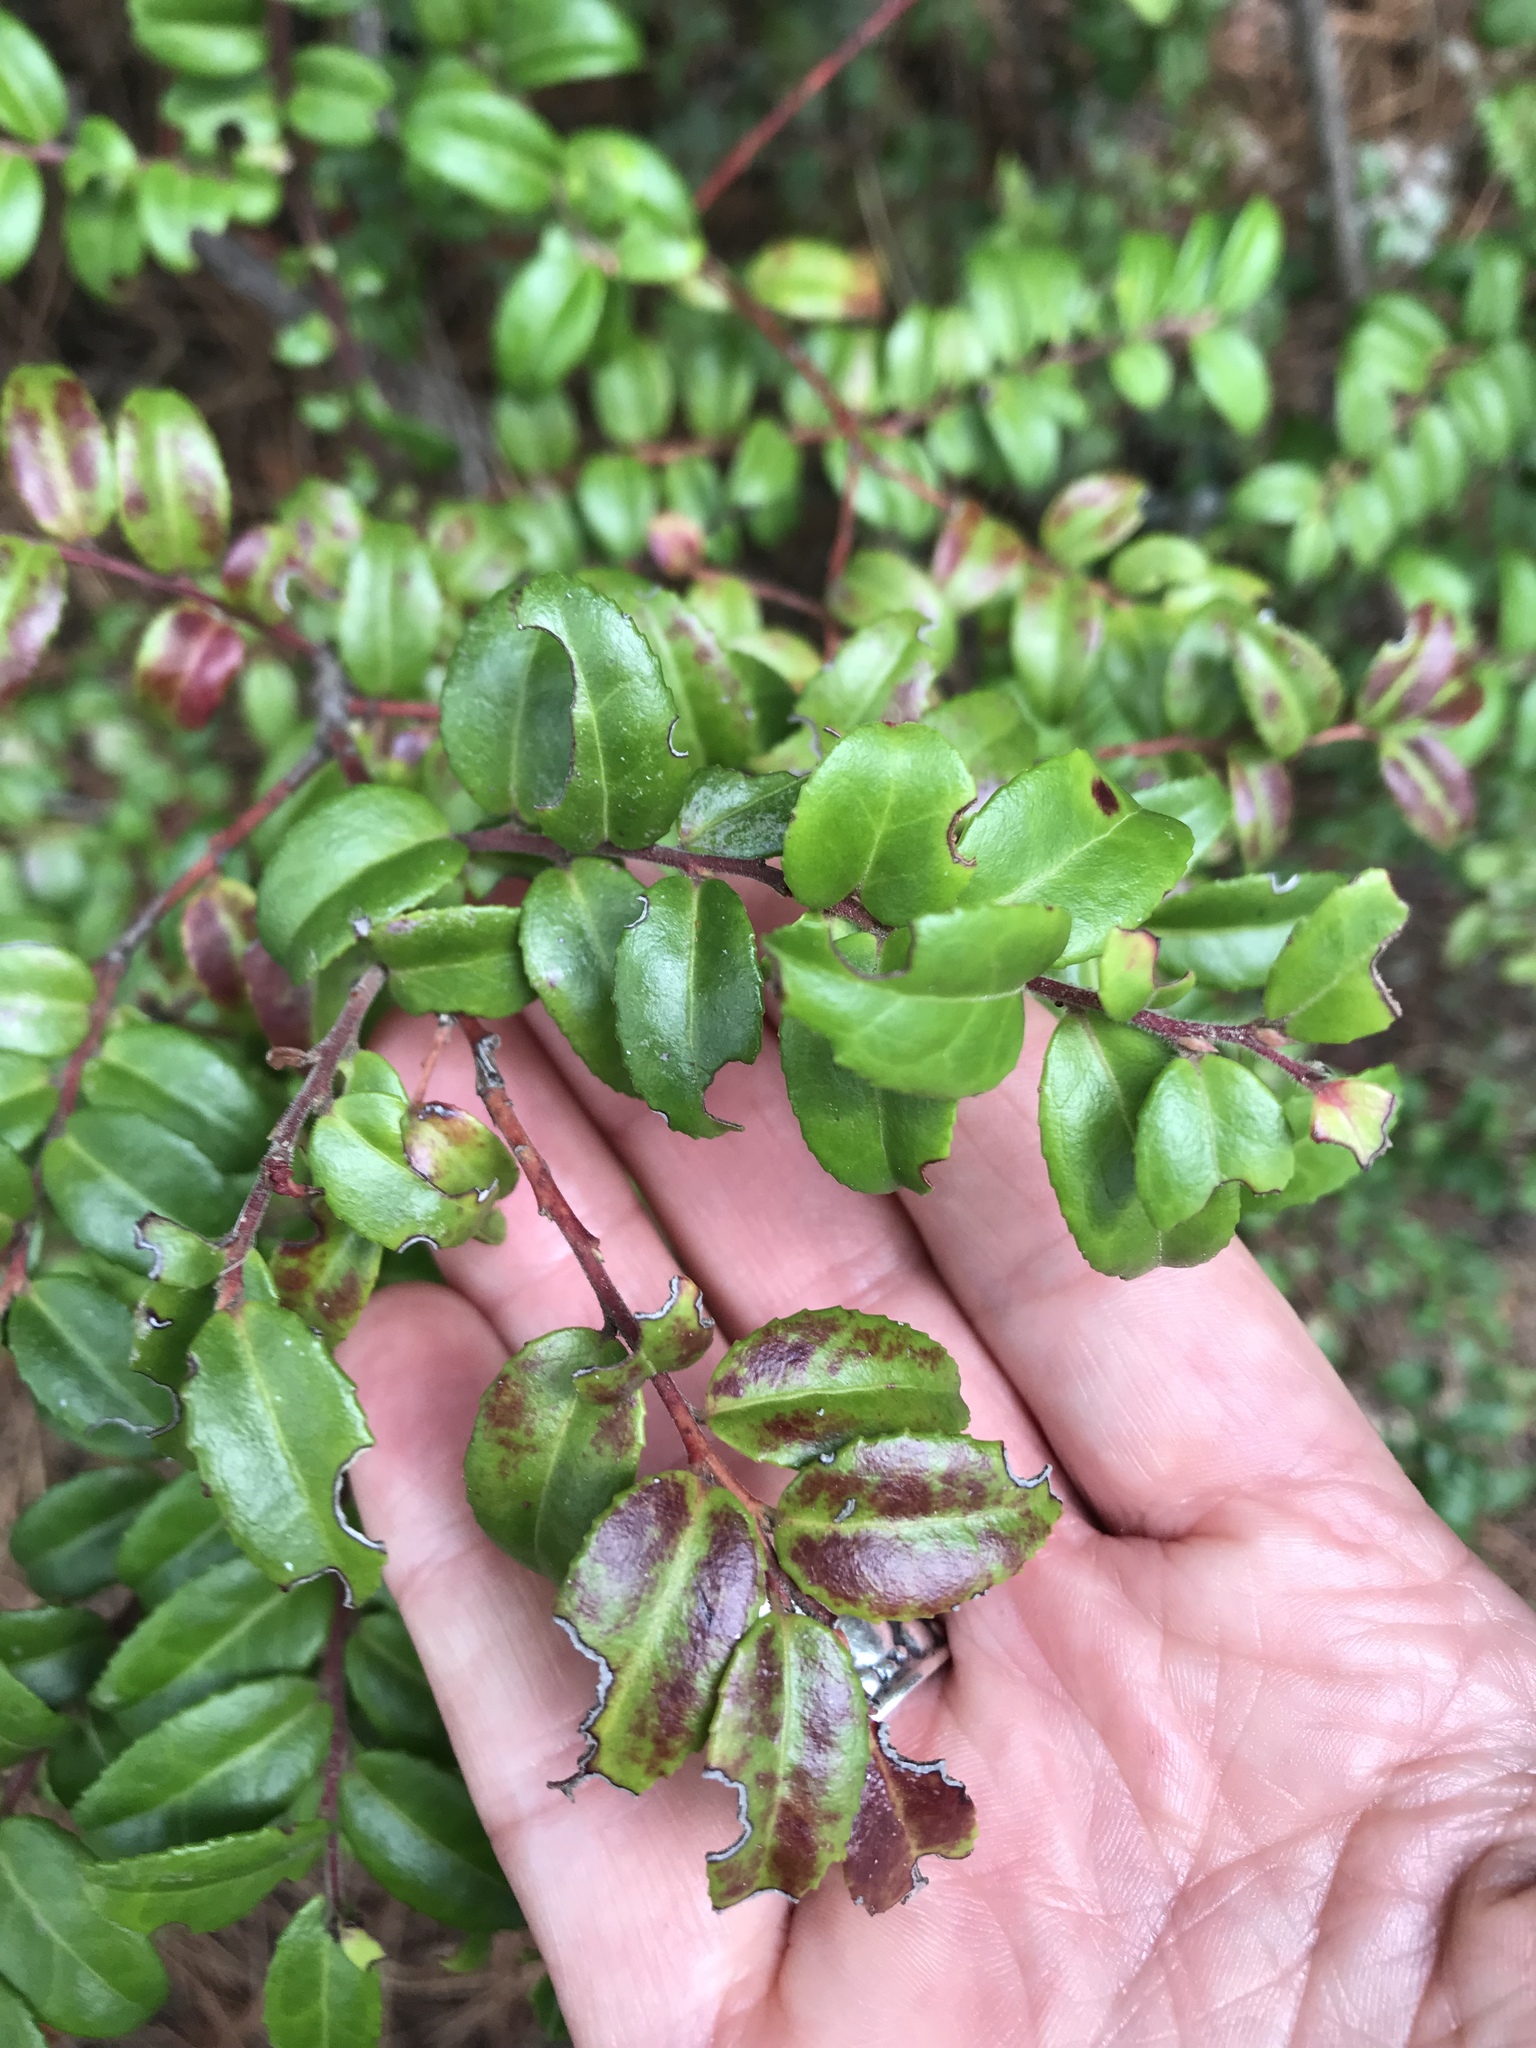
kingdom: Plantae
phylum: Tracheophyta
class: Magnoliopsida
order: Ericales
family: Ericaceae
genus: Vaccinium
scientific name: Vaccinium ovatum
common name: California-huckleberry
